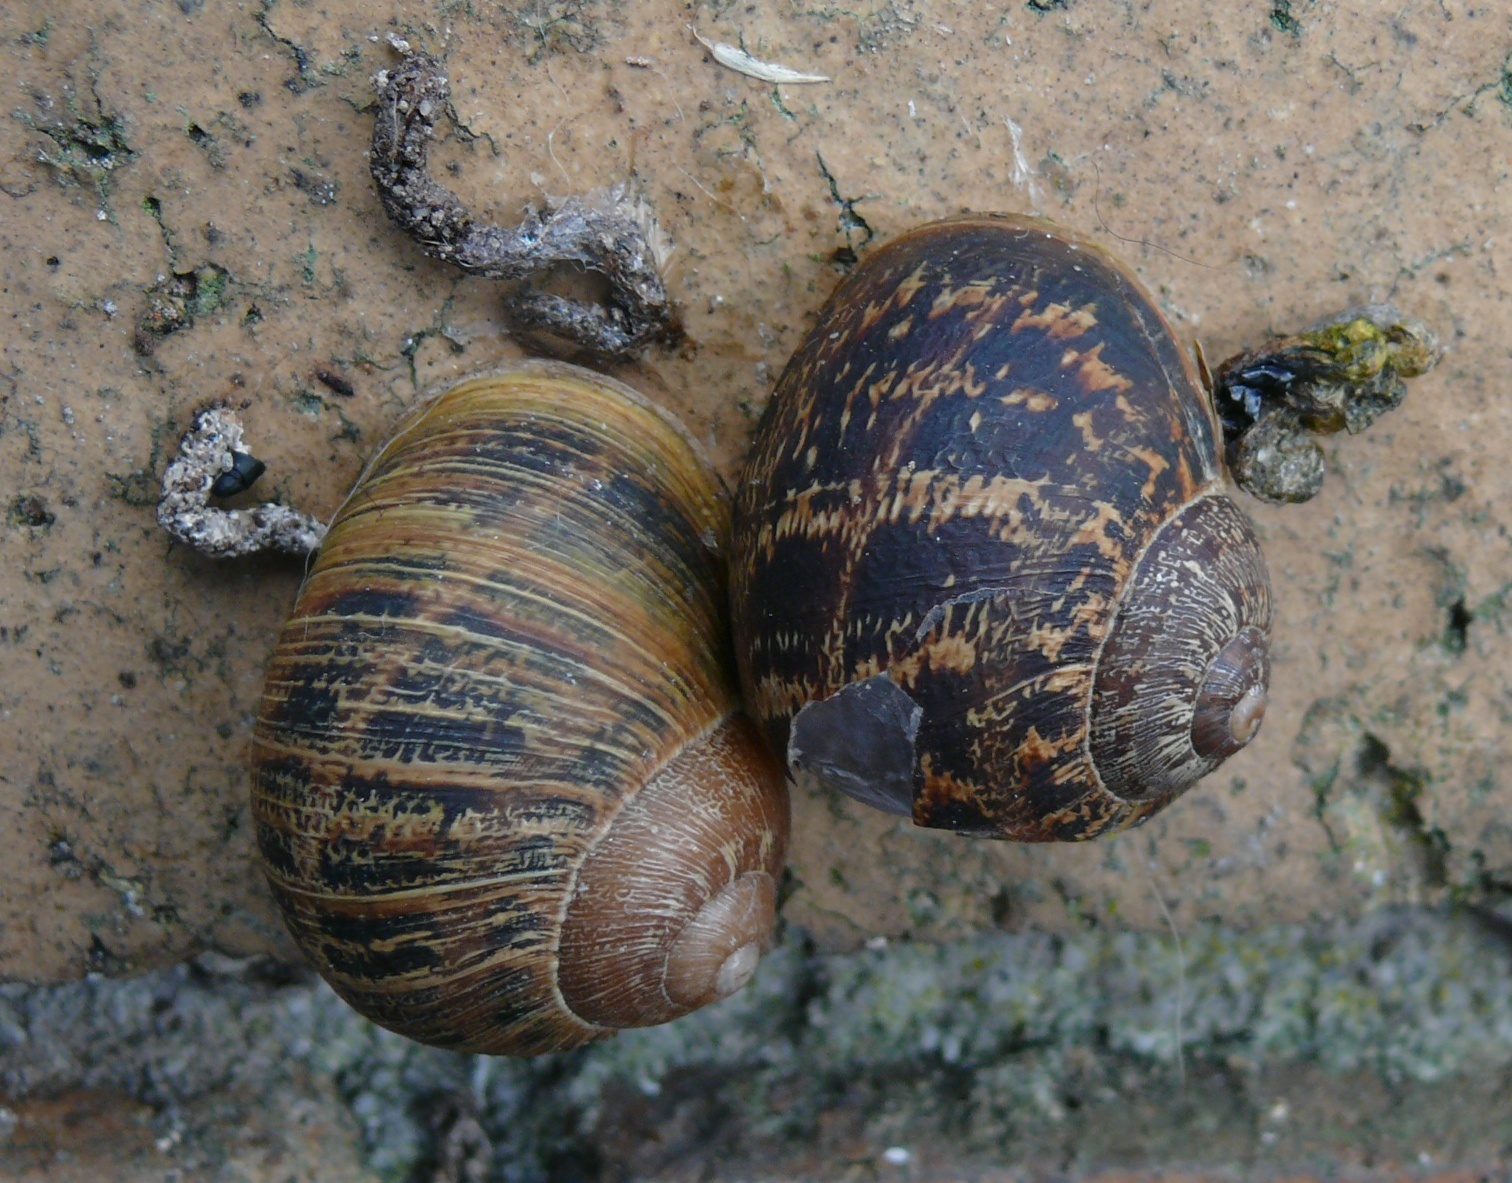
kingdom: Animalia
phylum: Mollusca
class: Gastropoda
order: Stylommatophora
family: Helicidae
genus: Cornu
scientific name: Cornu aspersum
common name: Brown garden snail
